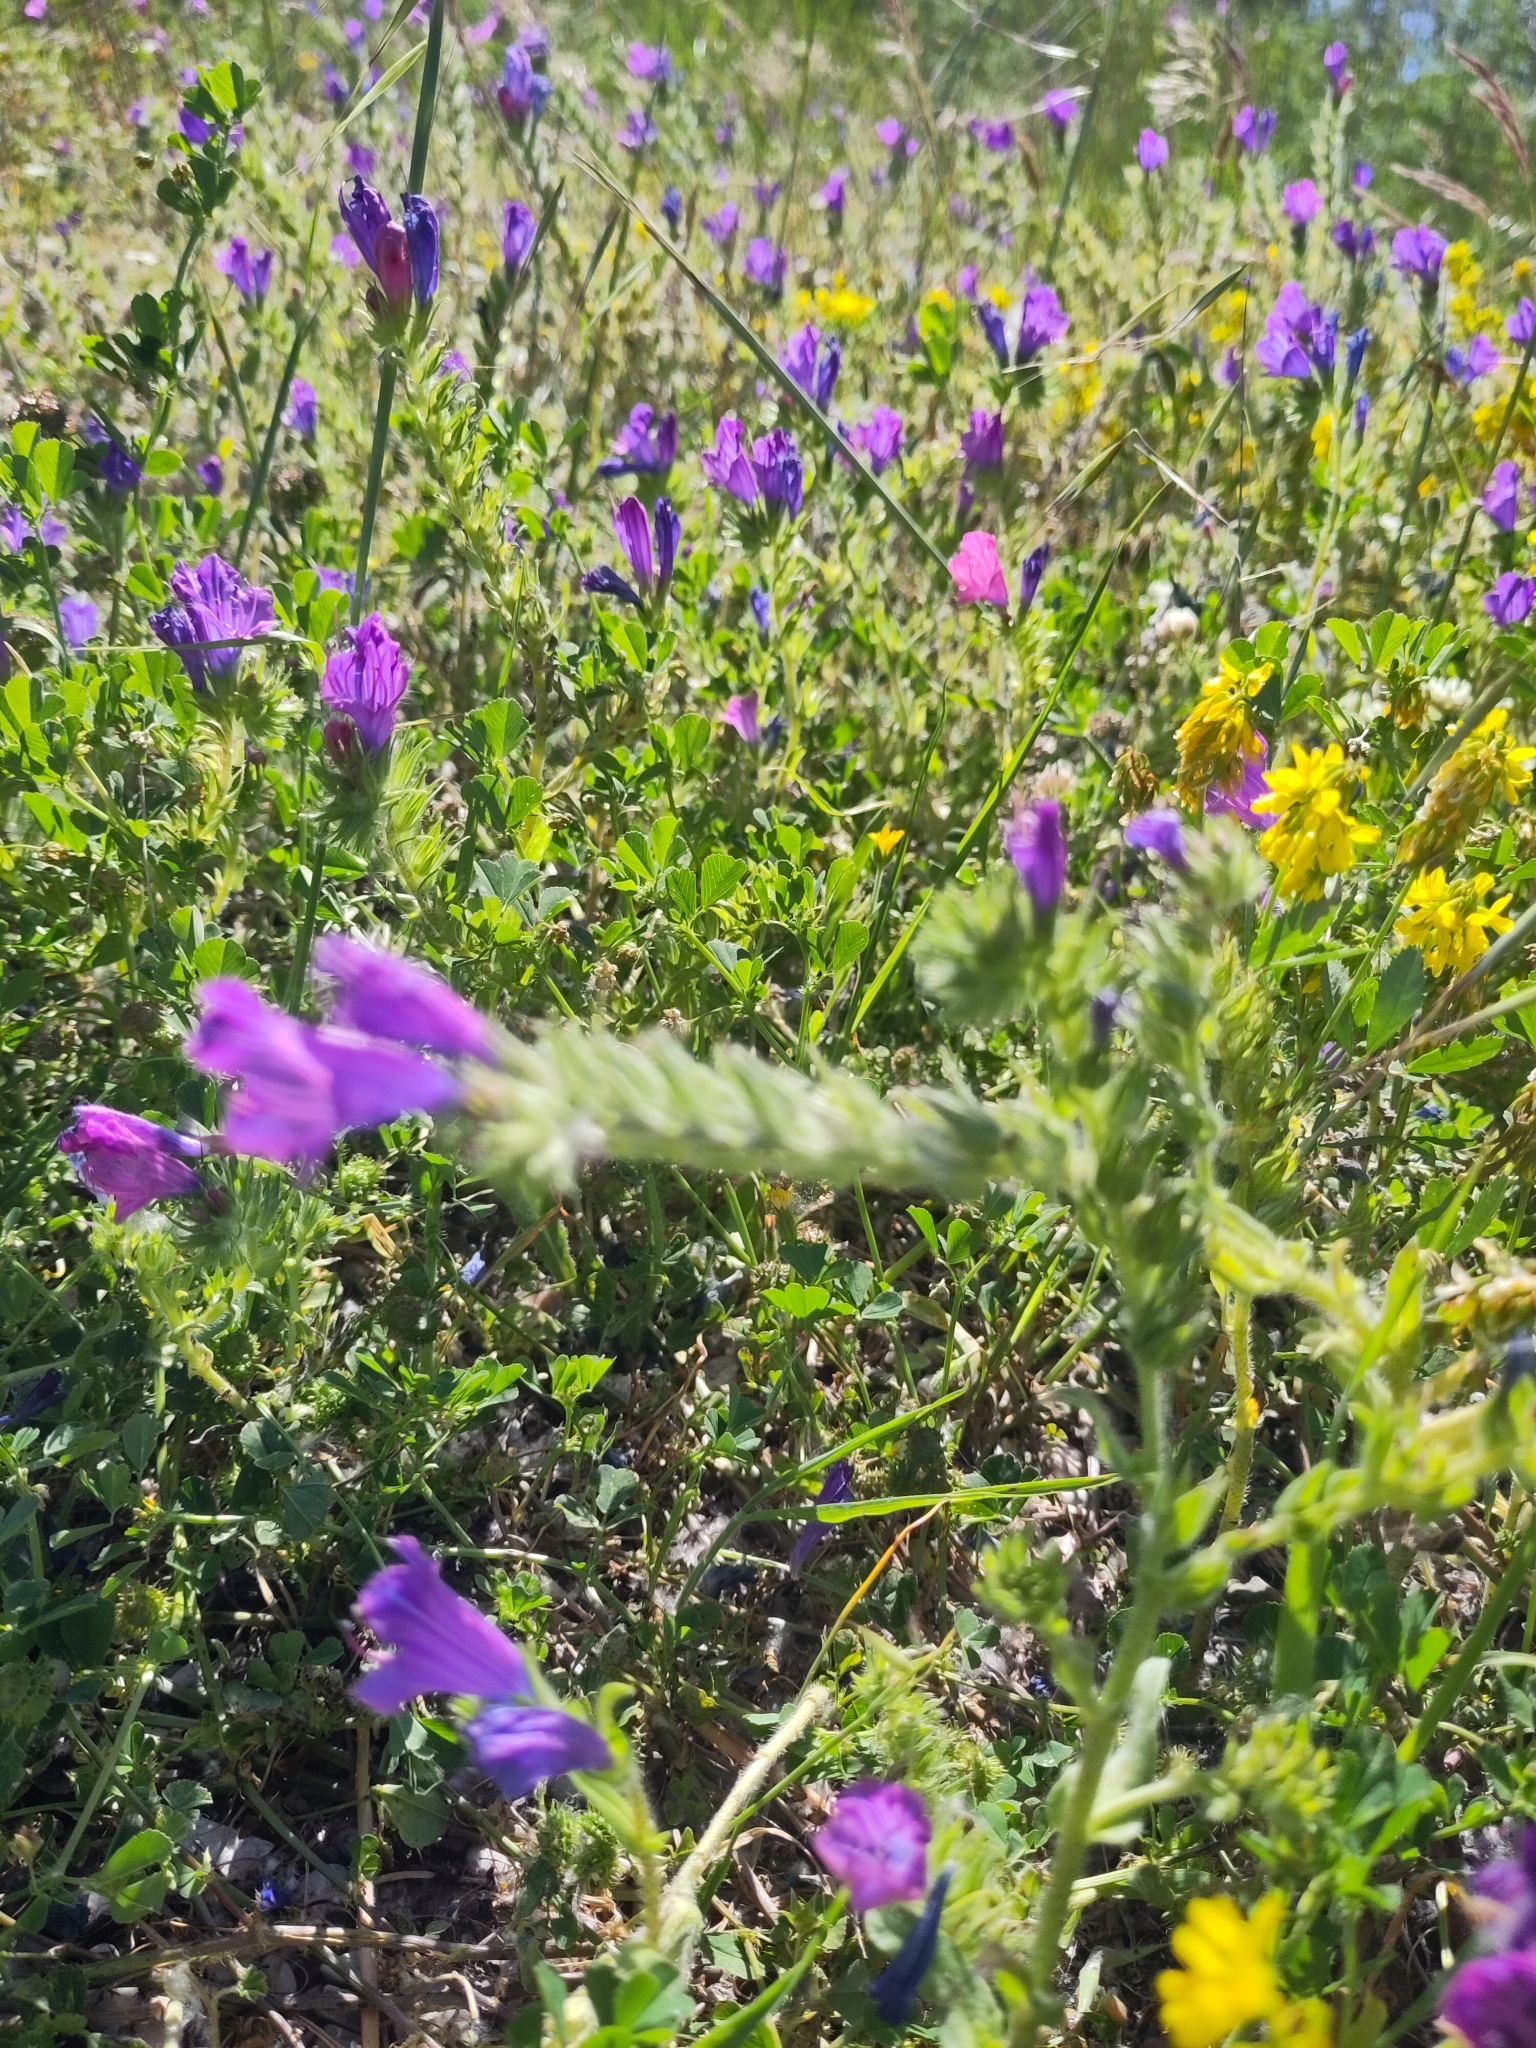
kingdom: Plantae
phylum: Tracheophyta
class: Magnoliopsida
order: Boraginales
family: Boraginaceae
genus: Echium
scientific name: Echium plantagineum
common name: Purple viper's-bugloss
